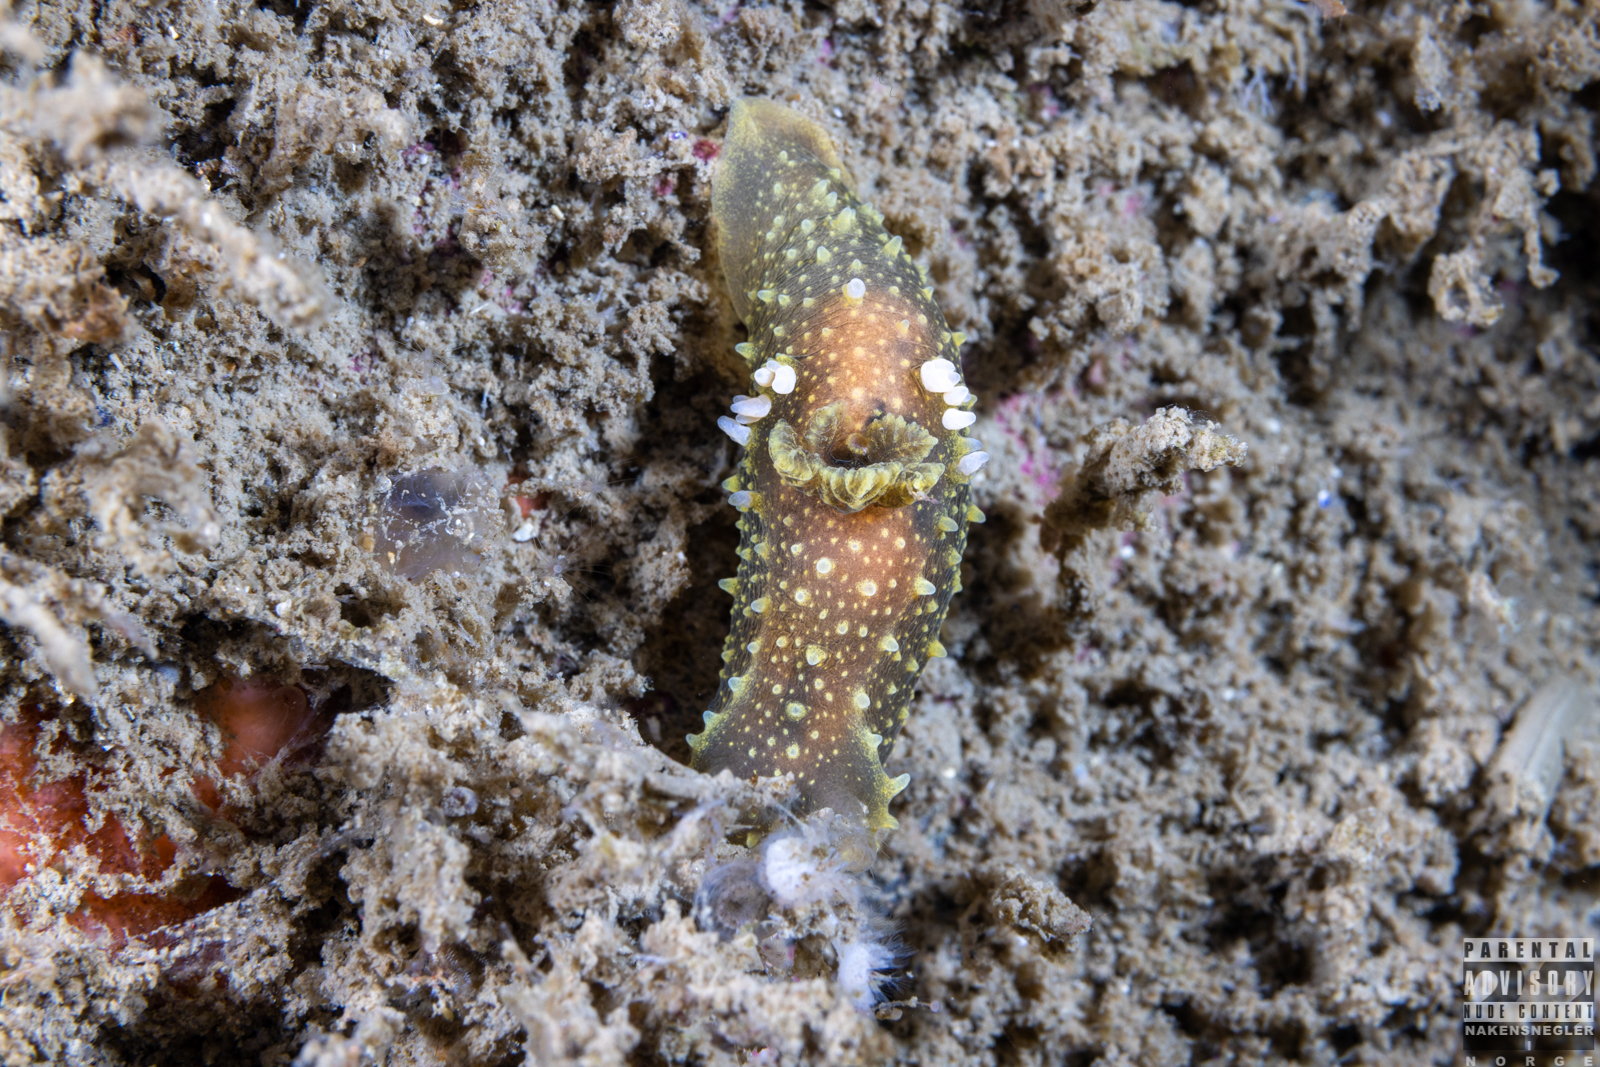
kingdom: Animalia
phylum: Mollusca
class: Gastropoda
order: Nudibranchia
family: Polyceridae
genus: Palio
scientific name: Palio dubia
